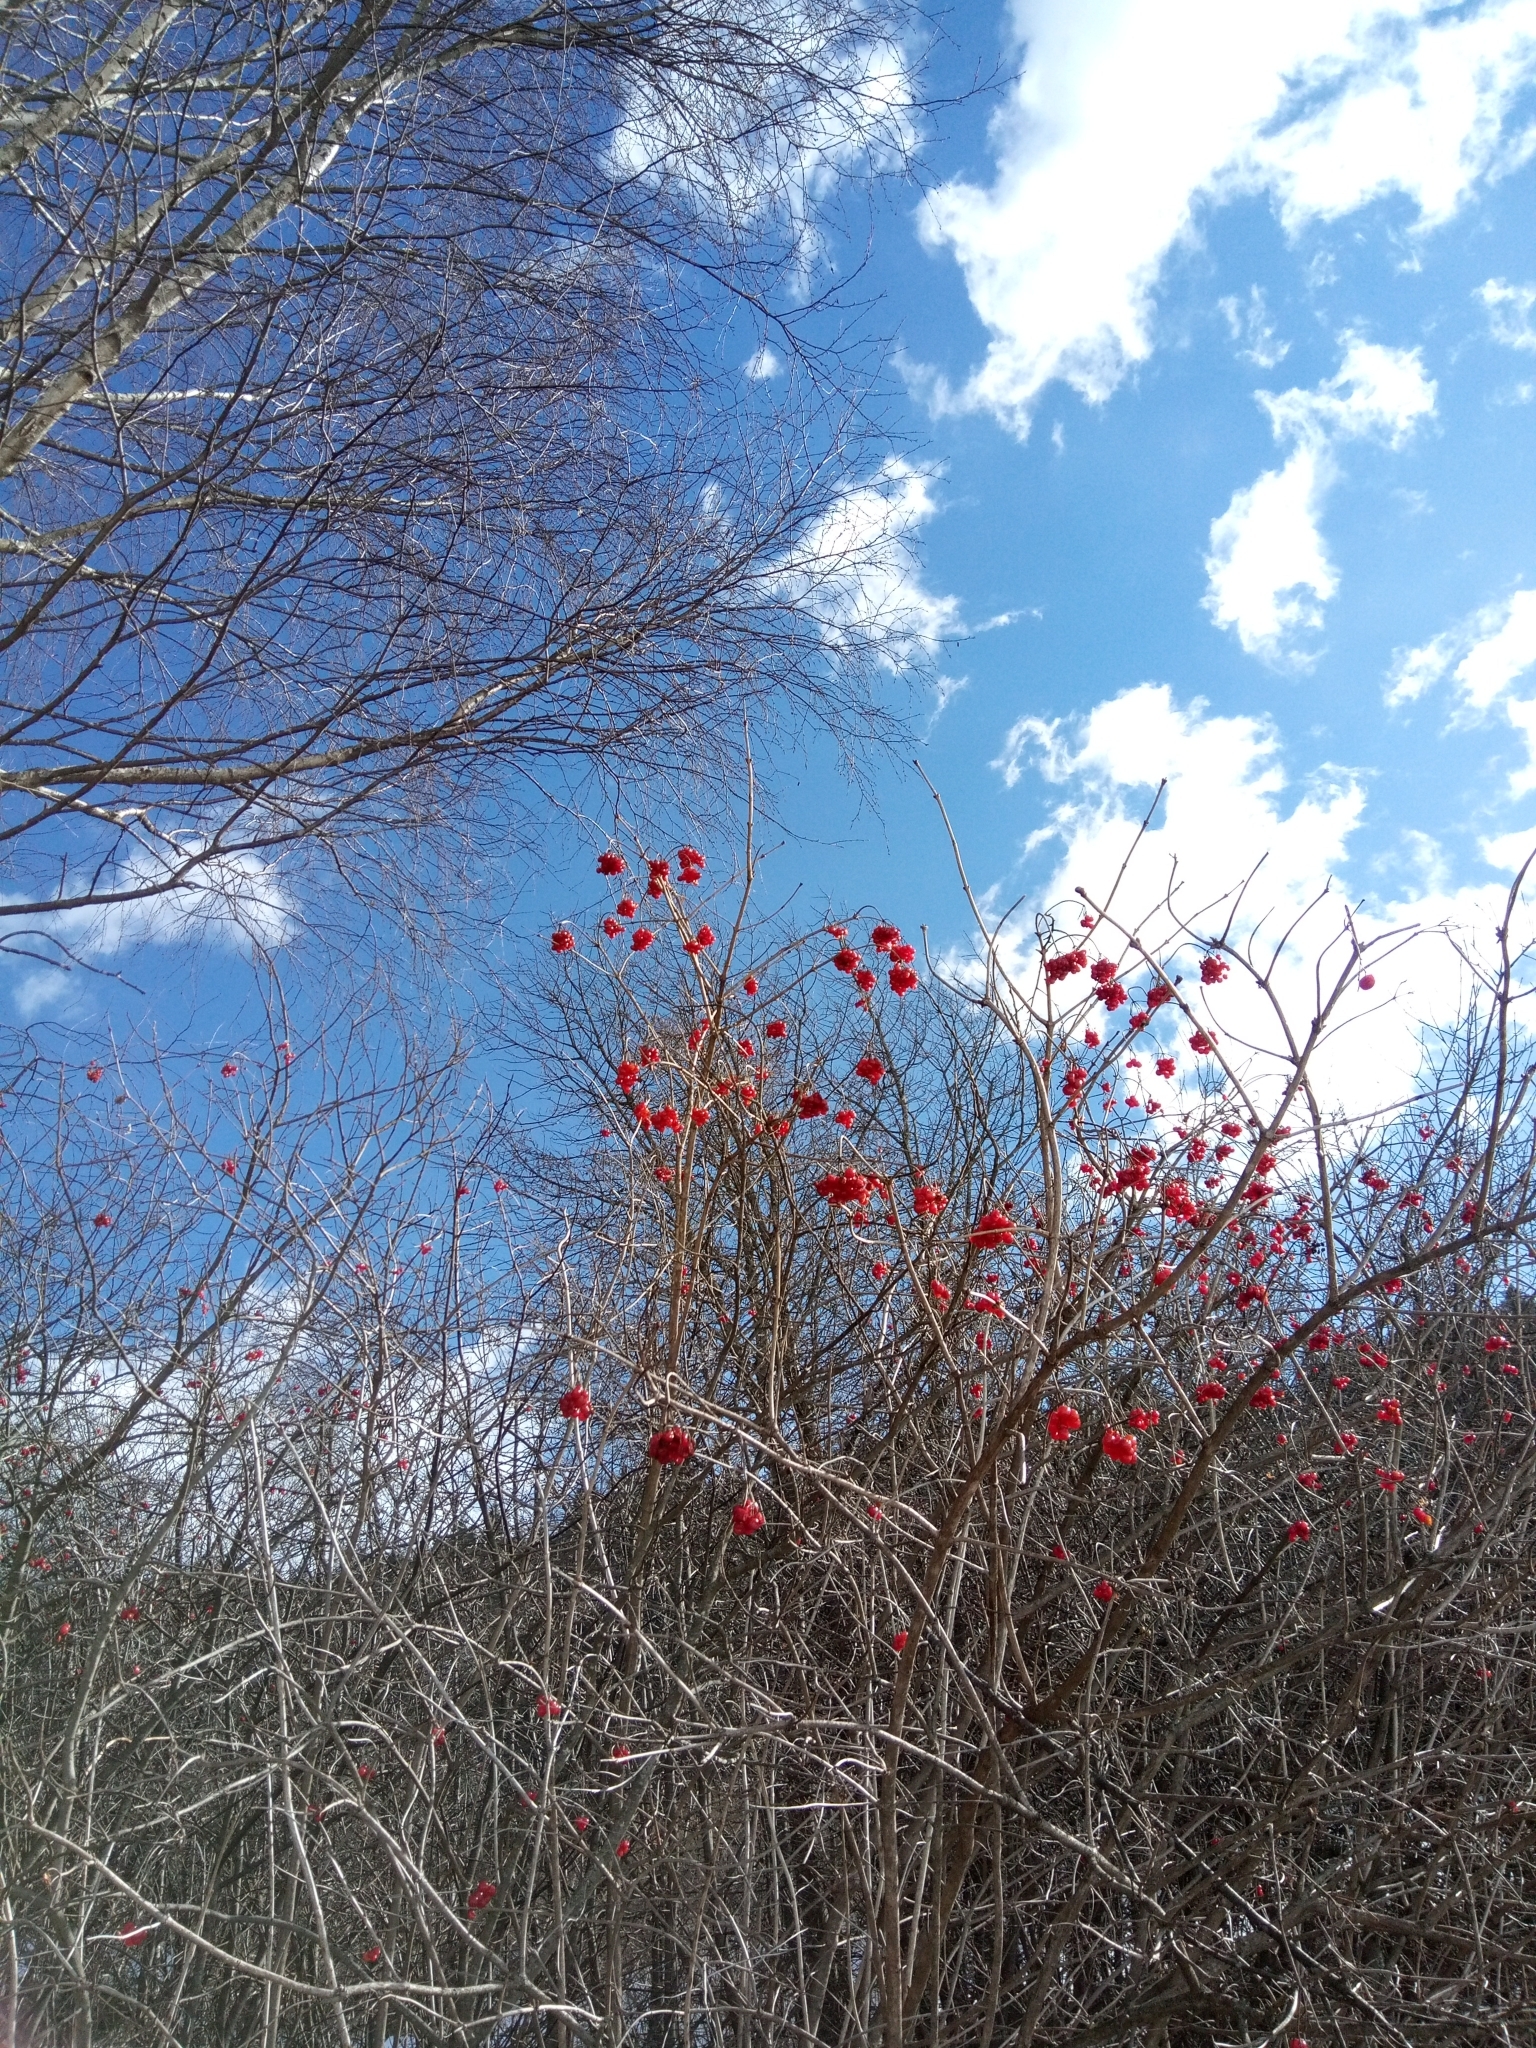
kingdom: Plantae
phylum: Tracheophyta
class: Magnoliopsida
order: Dipsacales
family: Viburnaceae
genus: Viburnum
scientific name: Viburnum opulus
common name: Guelder-rose
